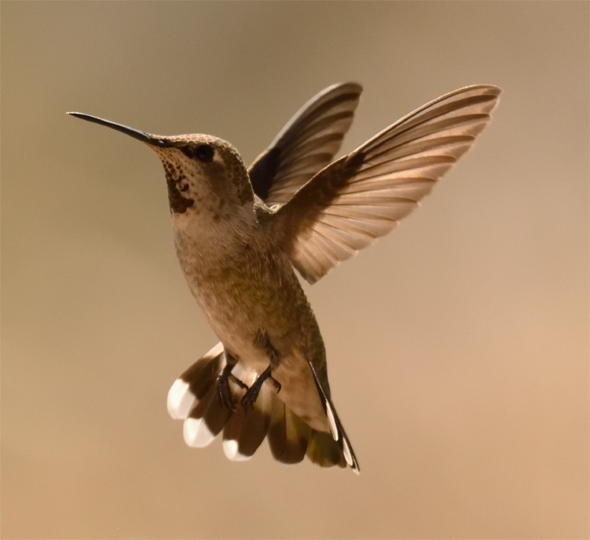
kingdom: Animalia
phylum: Chordata
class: Aves
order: Apodiformes
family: Trochilidae
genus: Calypte
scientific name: Calypte anna
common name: Anna's hummingbird
